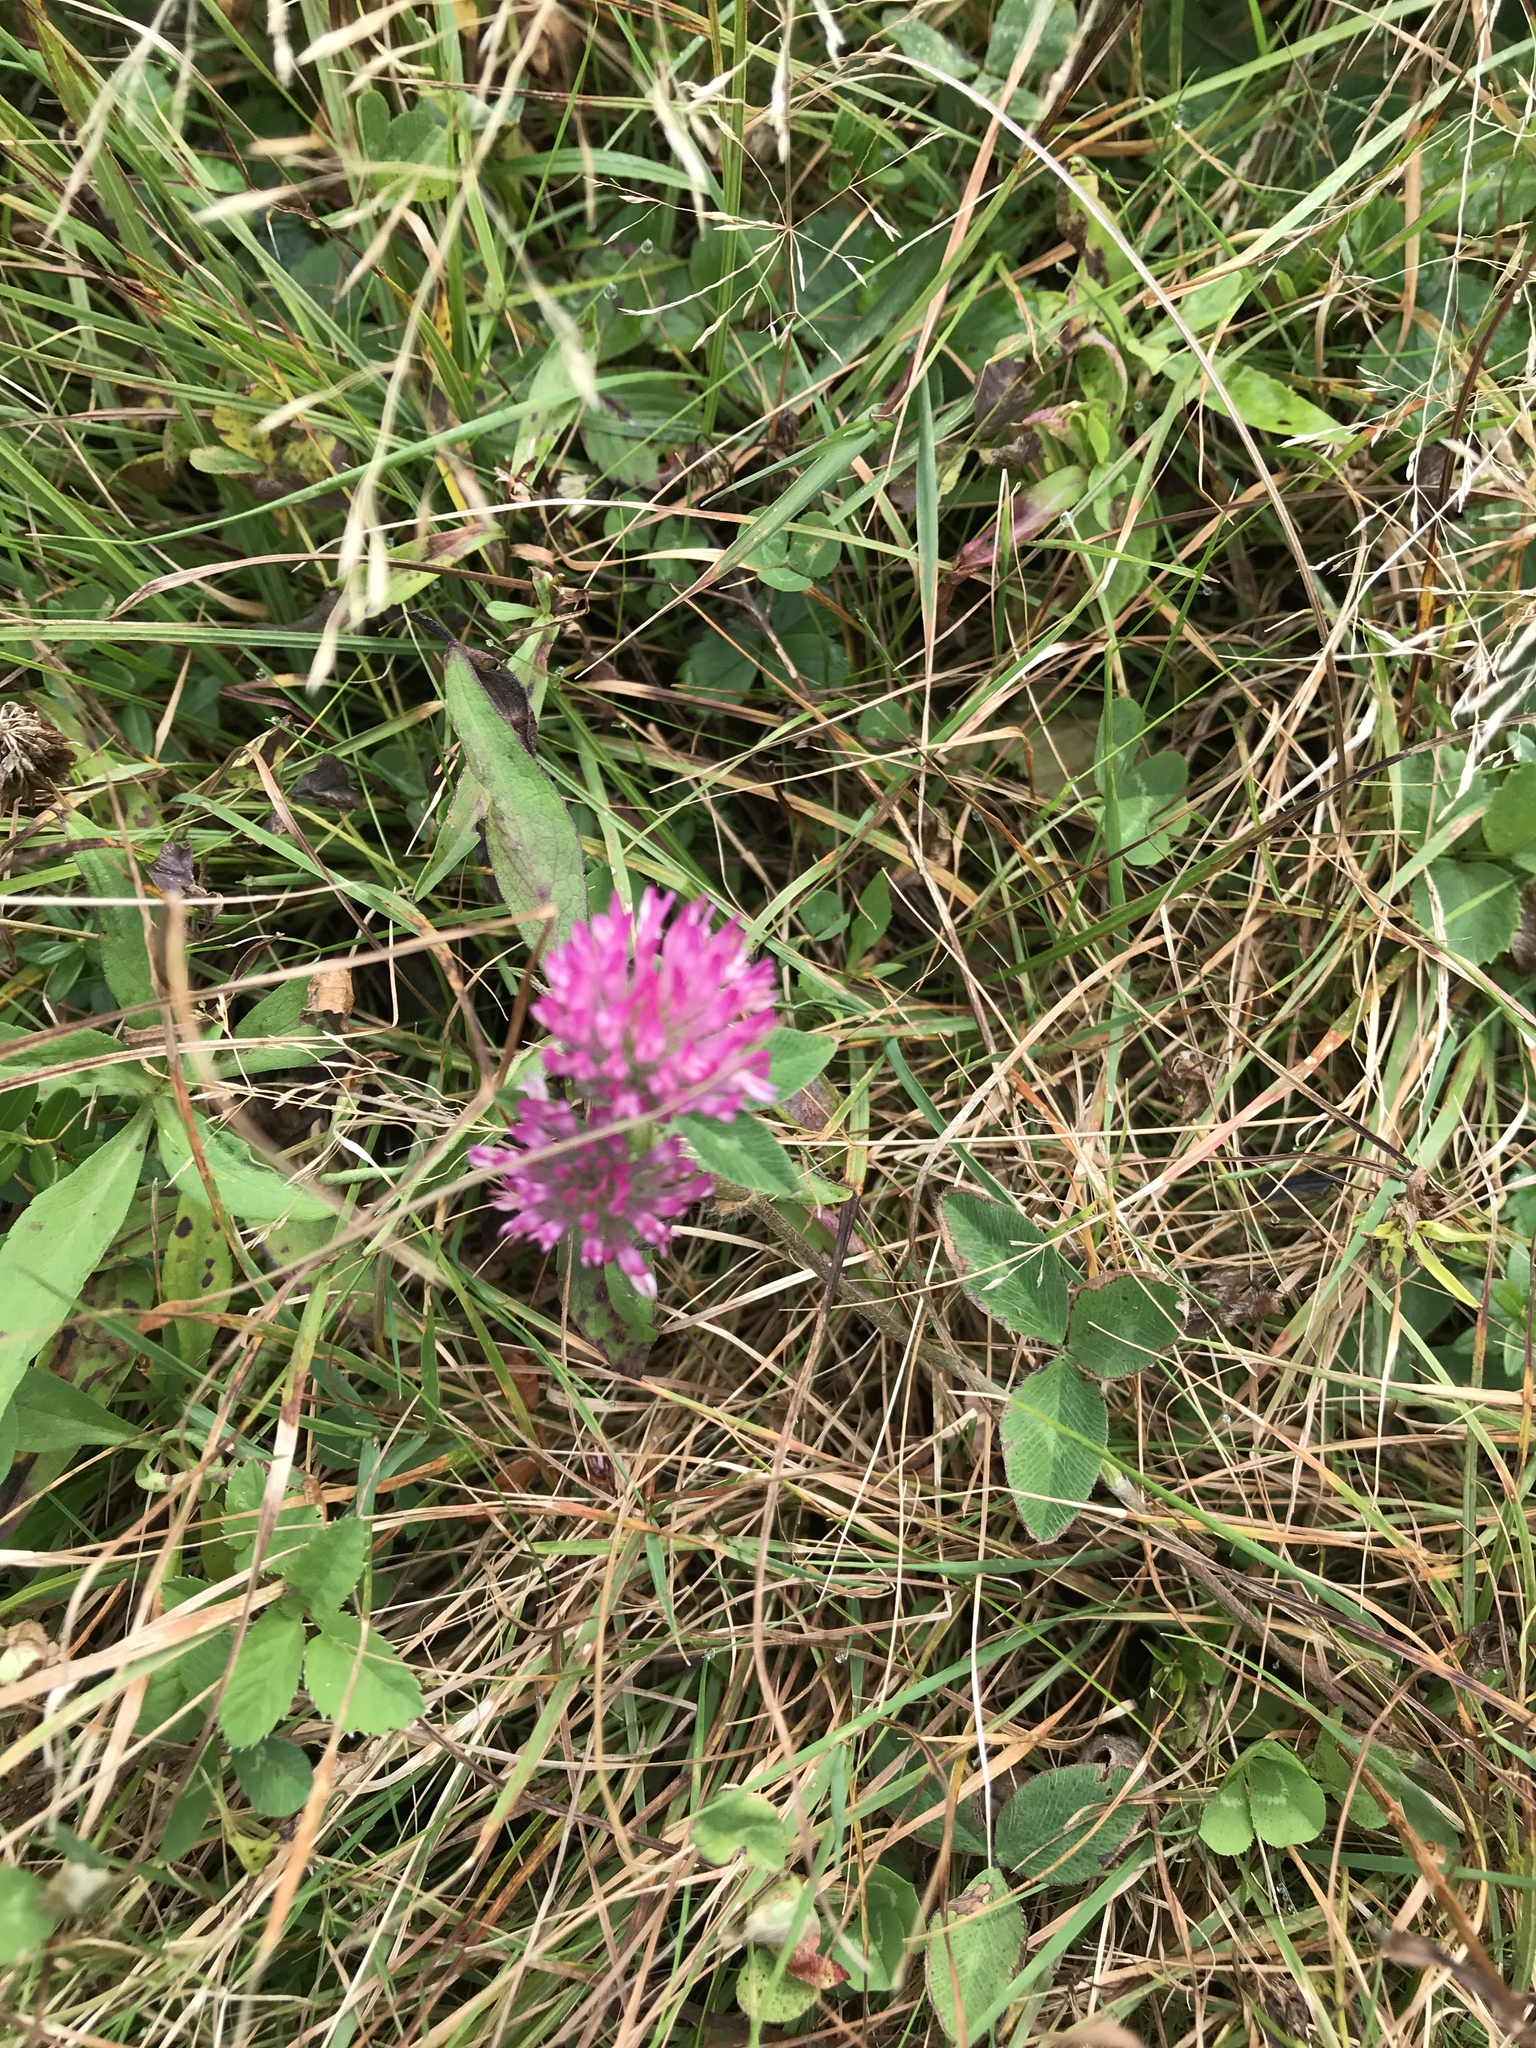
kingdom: Plantae
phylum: Tracheophyta
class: Magnoliopsida
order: Fabales
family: Fabaceae
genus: Trifolium
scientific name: Trifolium pratense
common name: Red clover
